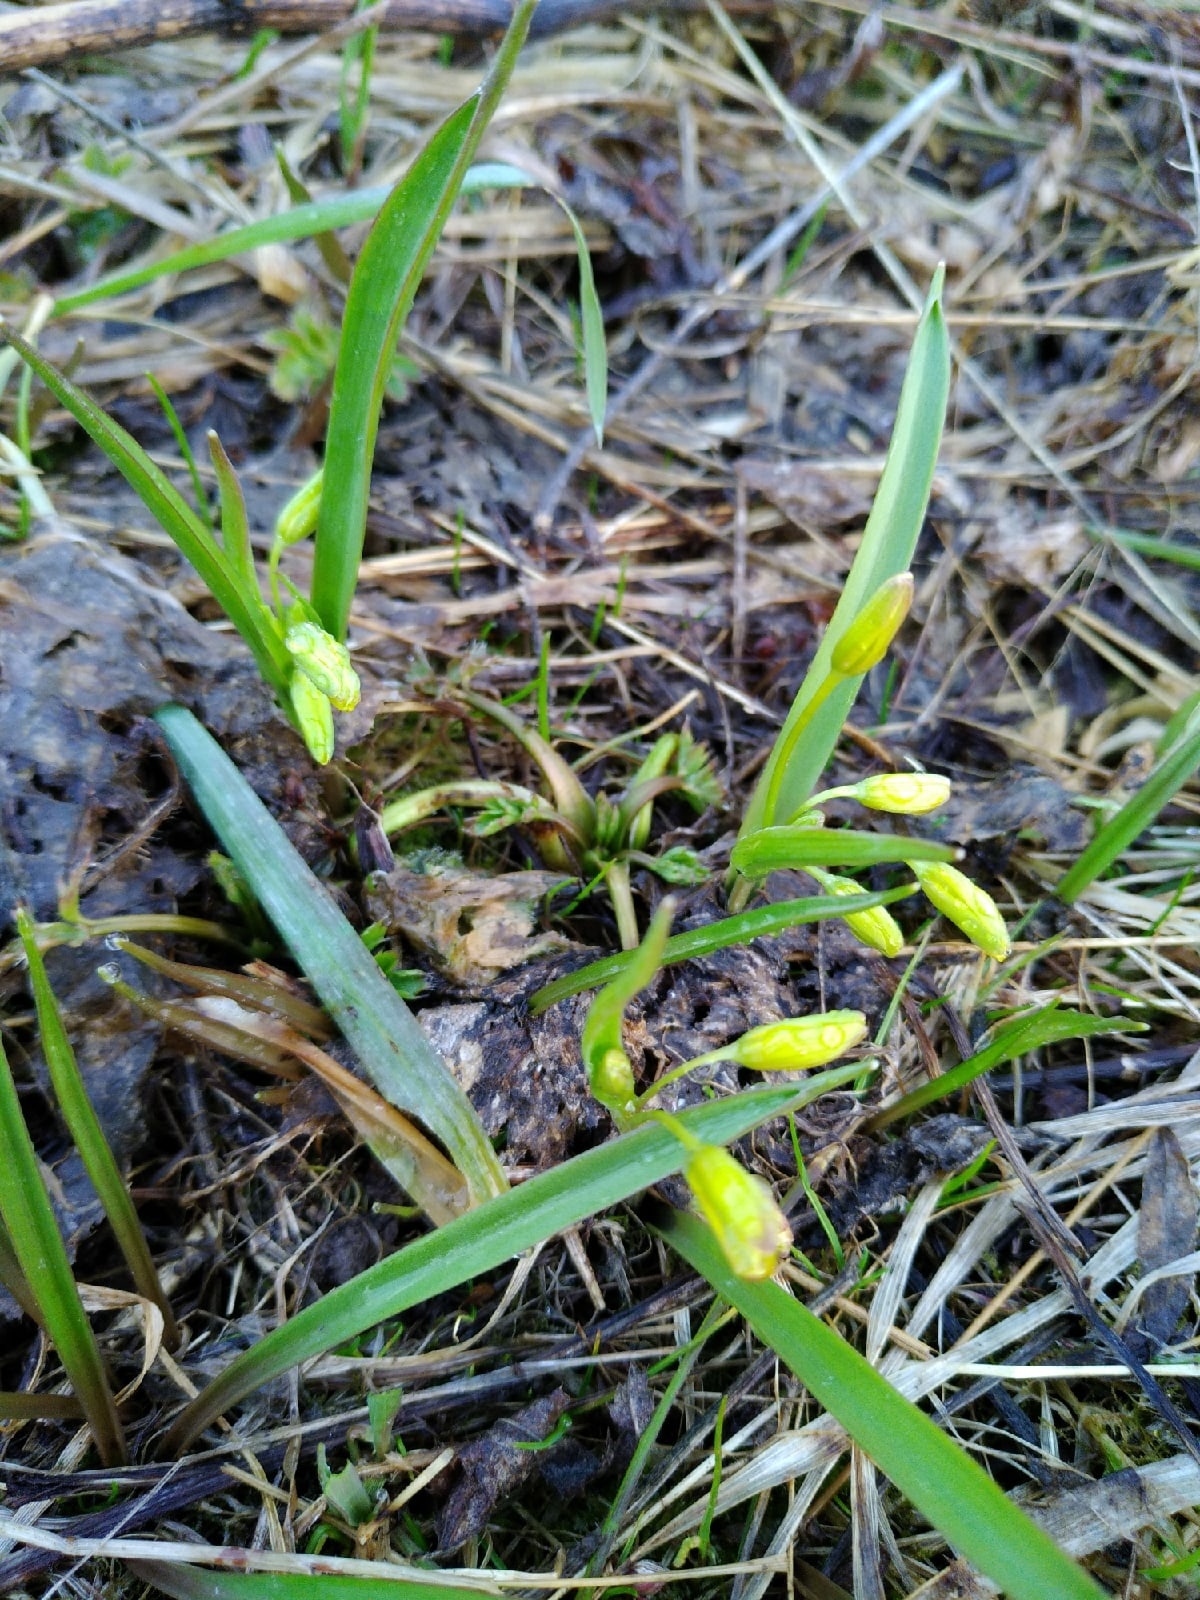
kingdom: Plantae
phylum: Tracheophyta
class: Liliopsida
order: Liliales
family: Liliaceae
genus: Gagea
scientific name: Gagea lutea
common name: Yellow star-of-bethlehem
